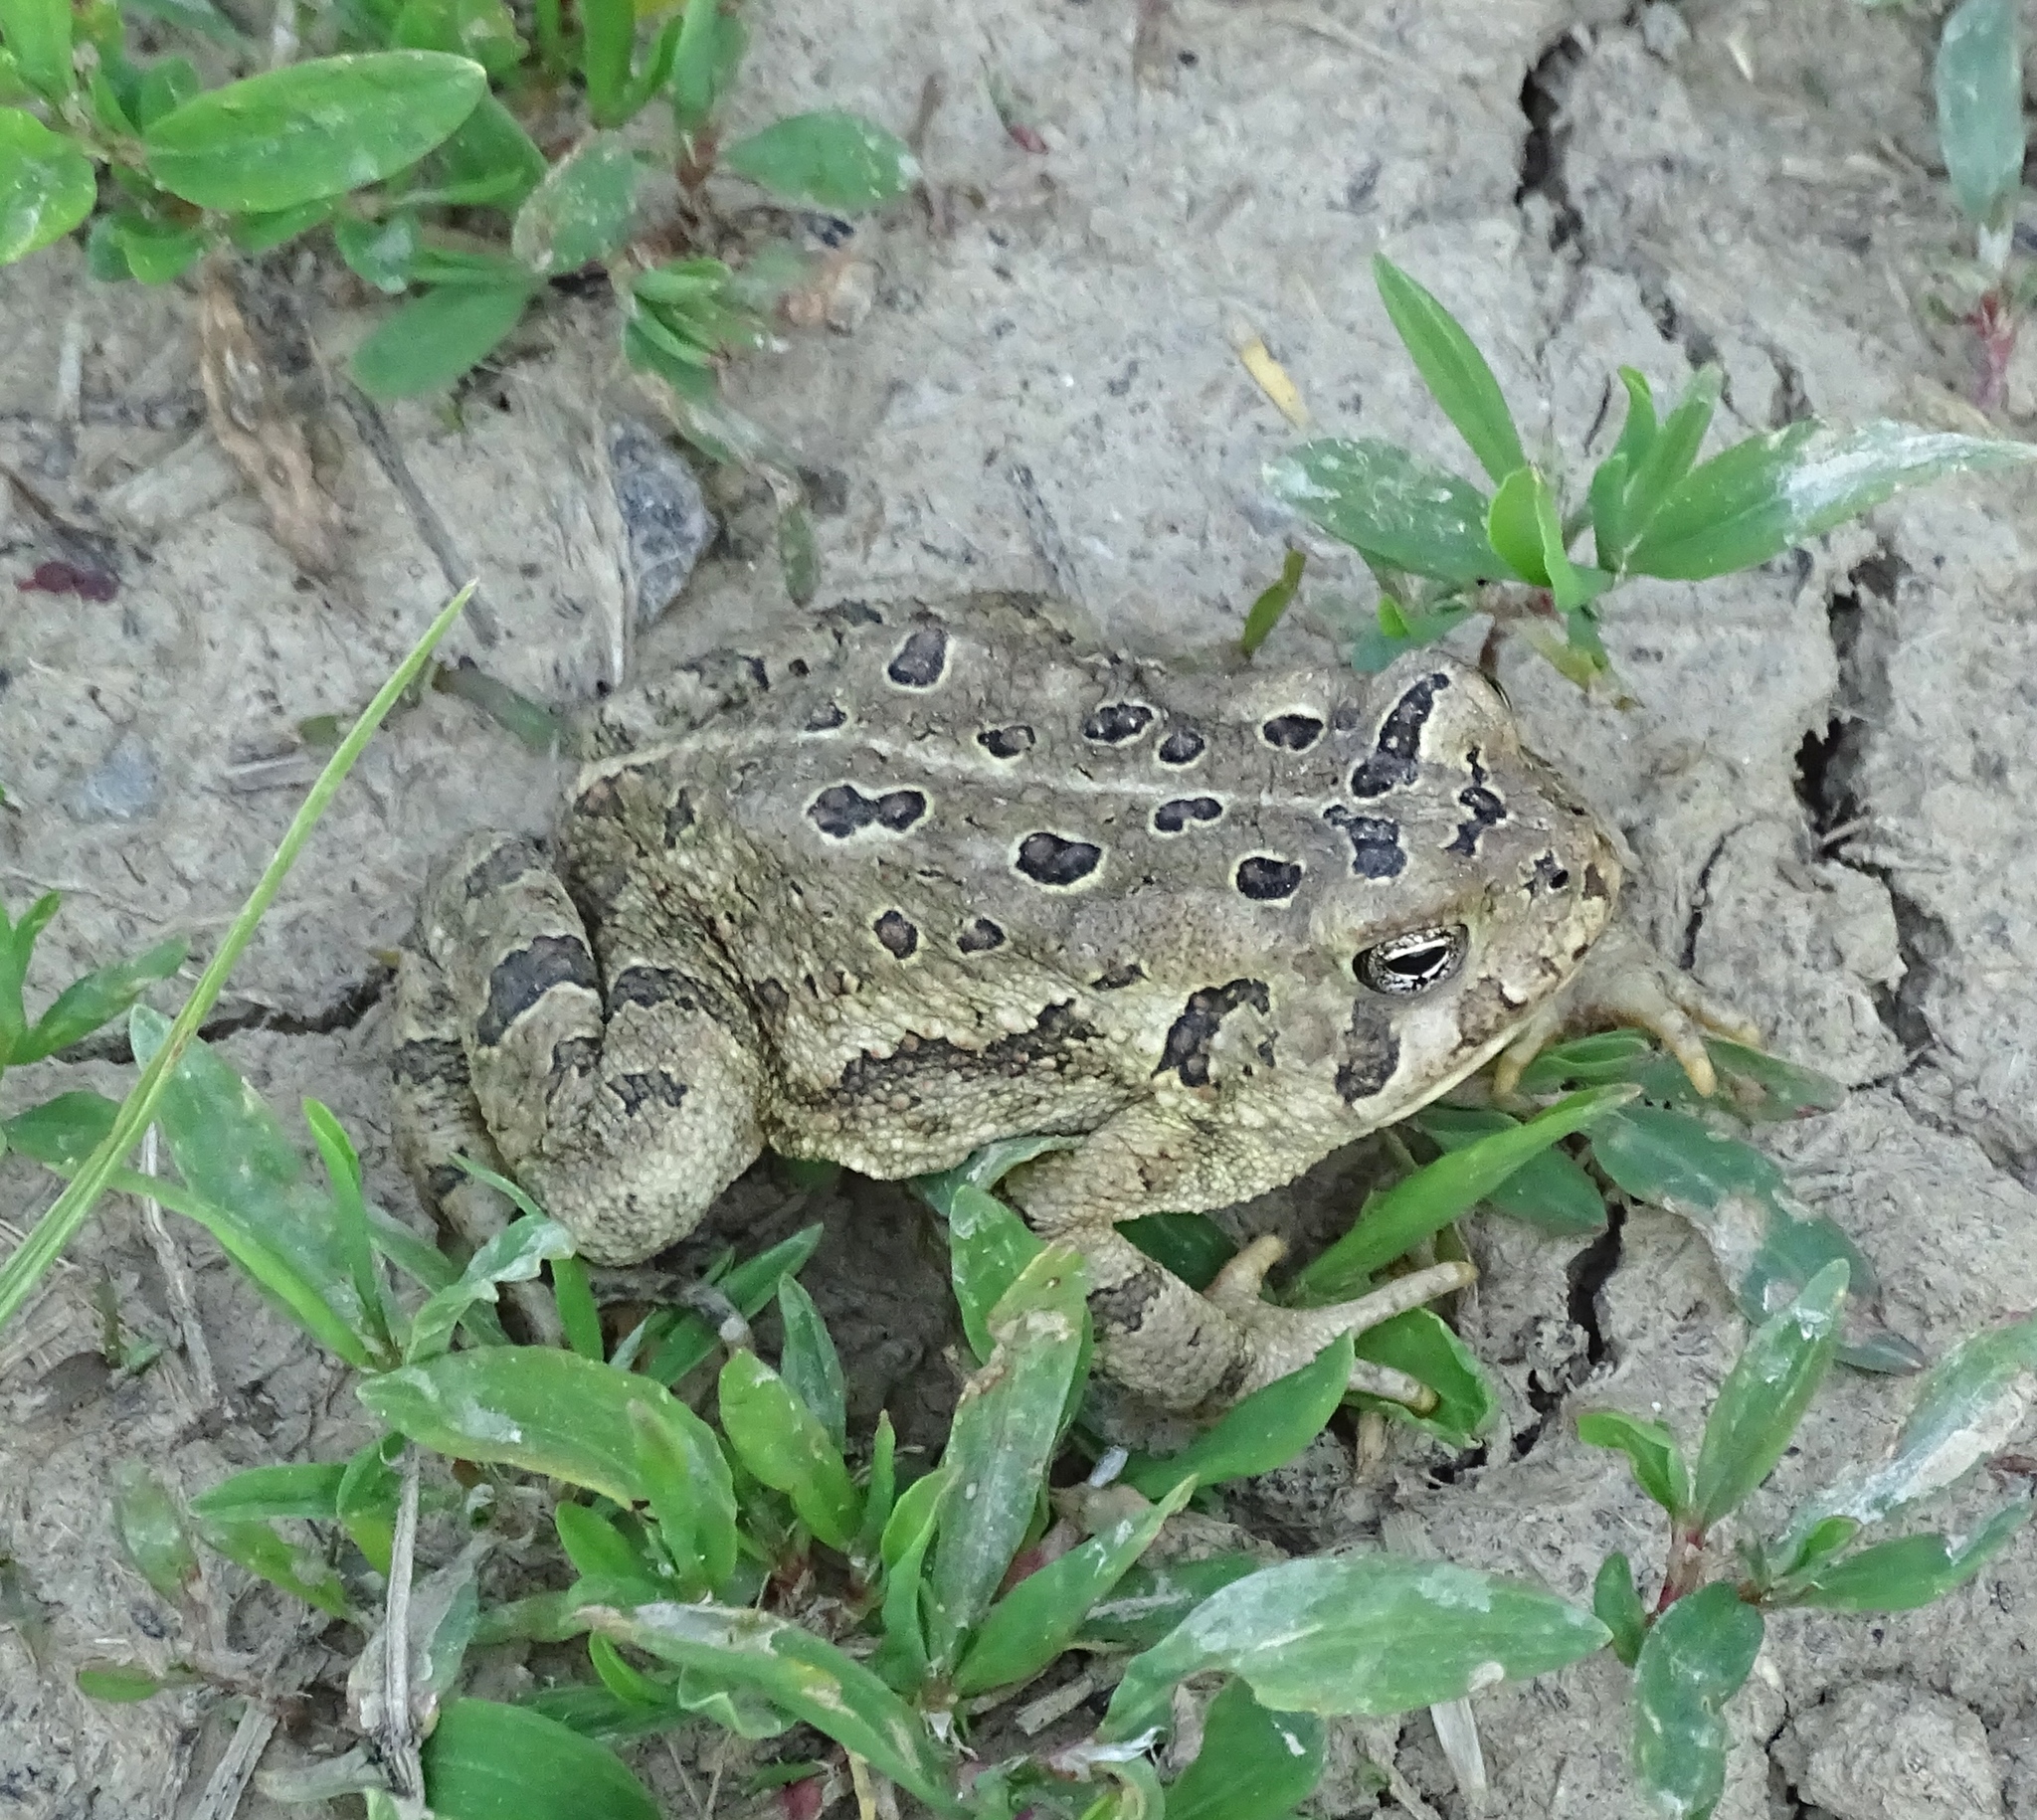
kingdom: Animalia
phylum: Chordata
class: Amphibia
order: Anura
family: Bufonidae
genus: Anaxyrus
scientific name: Anaxyrus fowleri
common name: Fowler's toad
